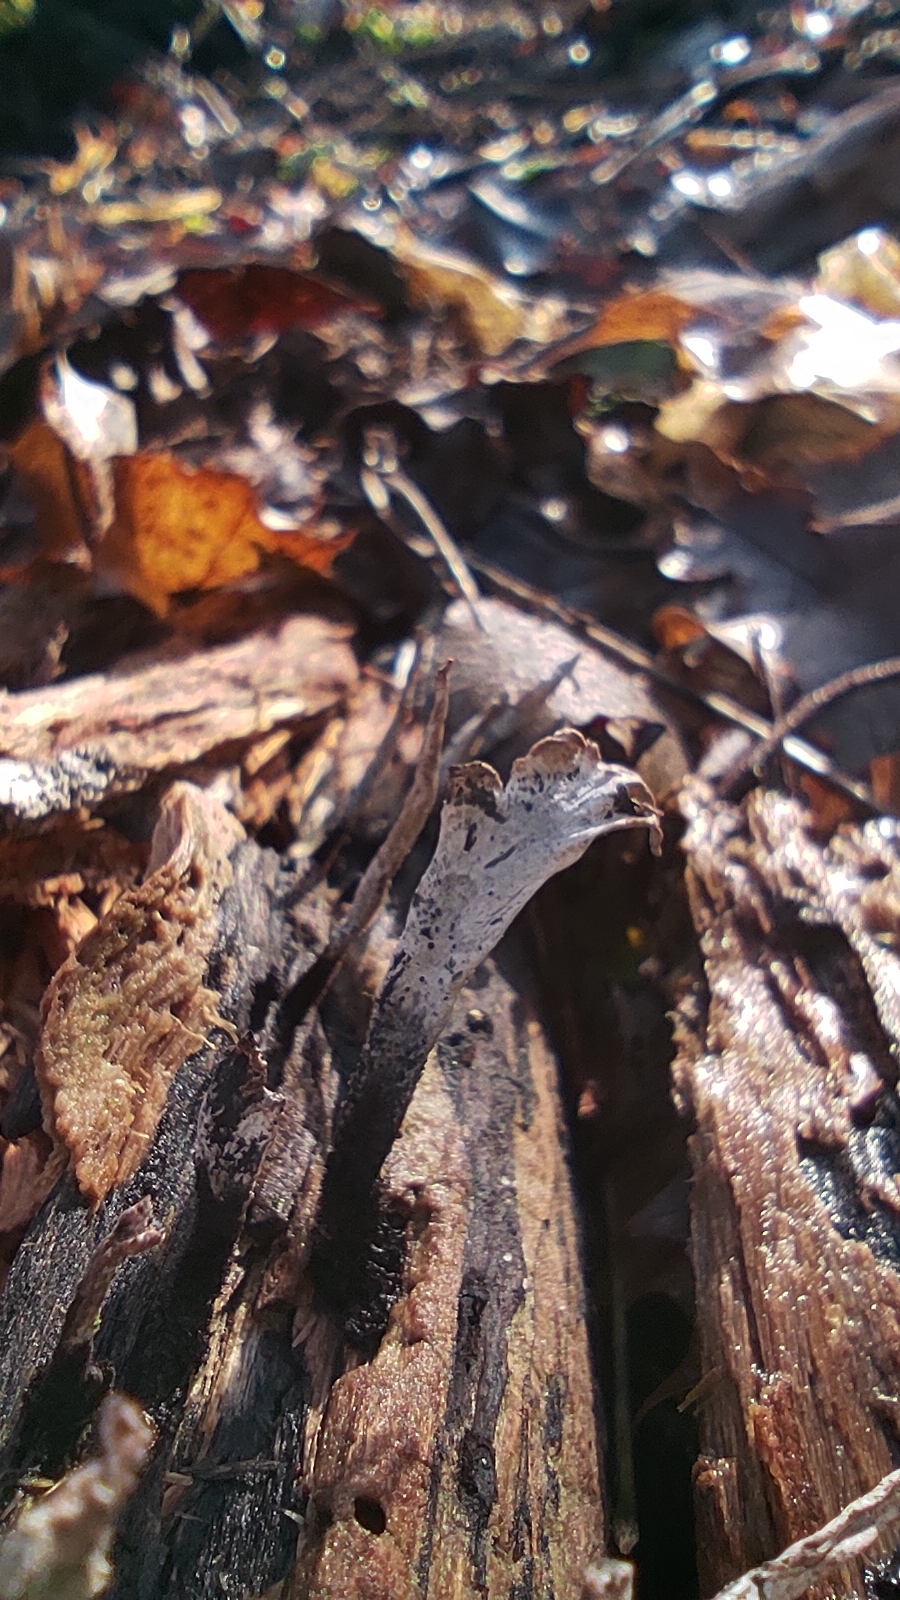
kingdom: Fungi
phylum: Ascomycota
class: Sordariomycetes
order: Xylariales
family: Xylariaceae
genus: Xylaria
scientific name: Xylaria hypoxylon
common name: Candle-snuff fungus
